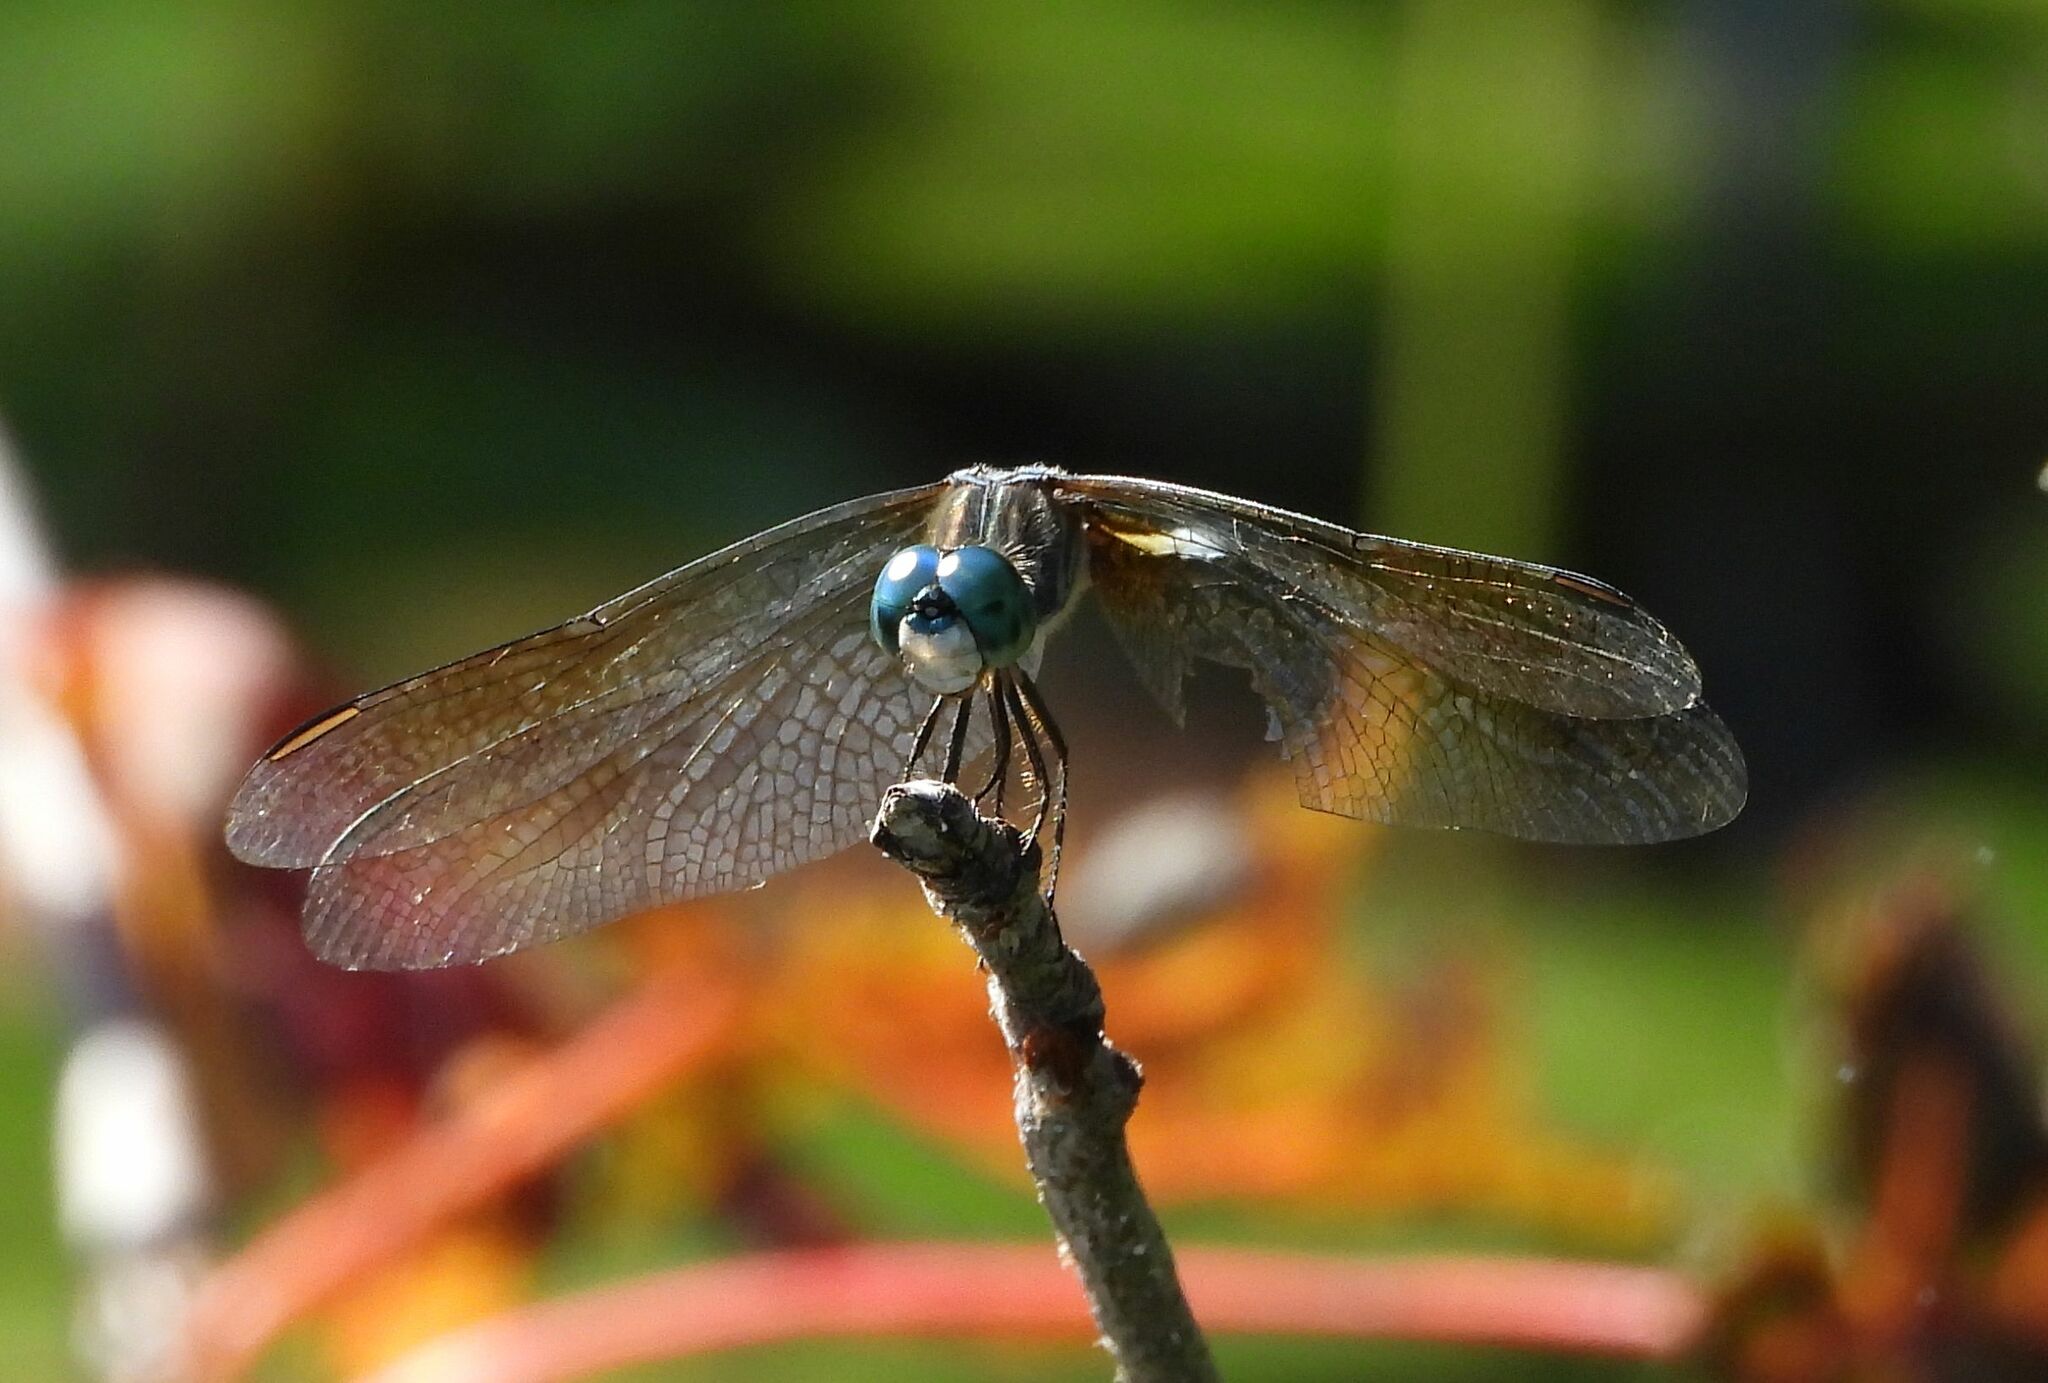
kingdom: Animalia
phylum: Arthropoda
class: Insecta
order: Odonata
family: Libellulidae
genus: Pachydiplax
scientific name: Pachydiplax longipennis
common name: Blue dasher
